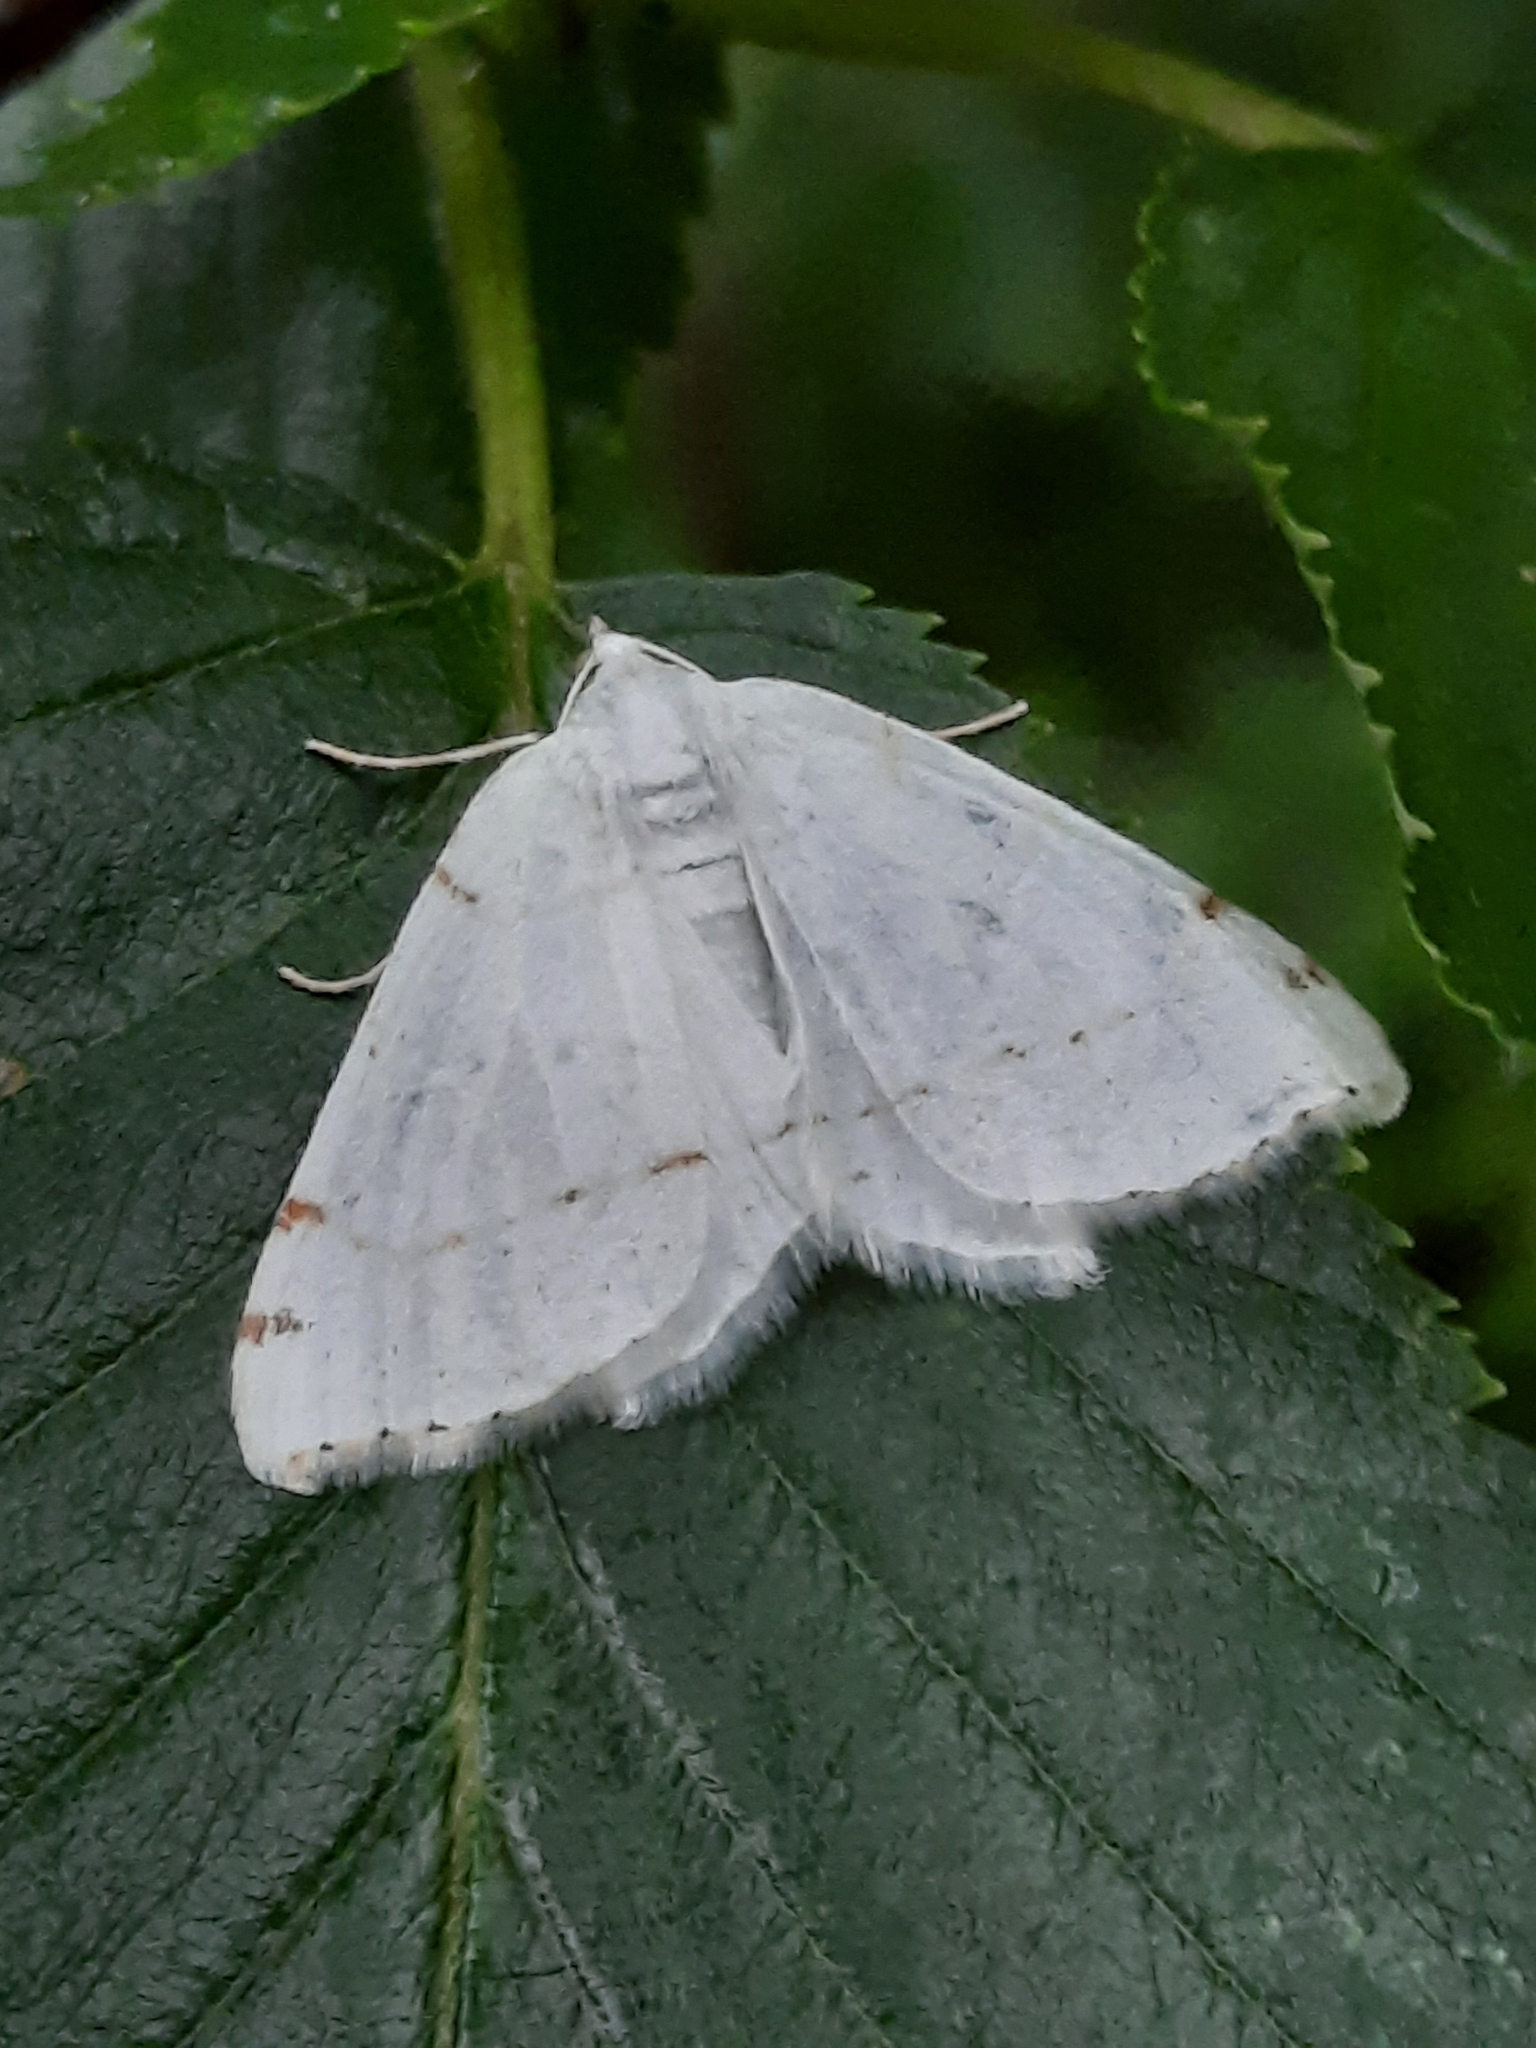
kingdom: Animalia
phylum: Arthropoda
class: Insecta
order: Lepidoptera
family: Geometridae
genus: Macaria
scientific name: Macaria pustularia
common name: Lesser maple spanworm moth
